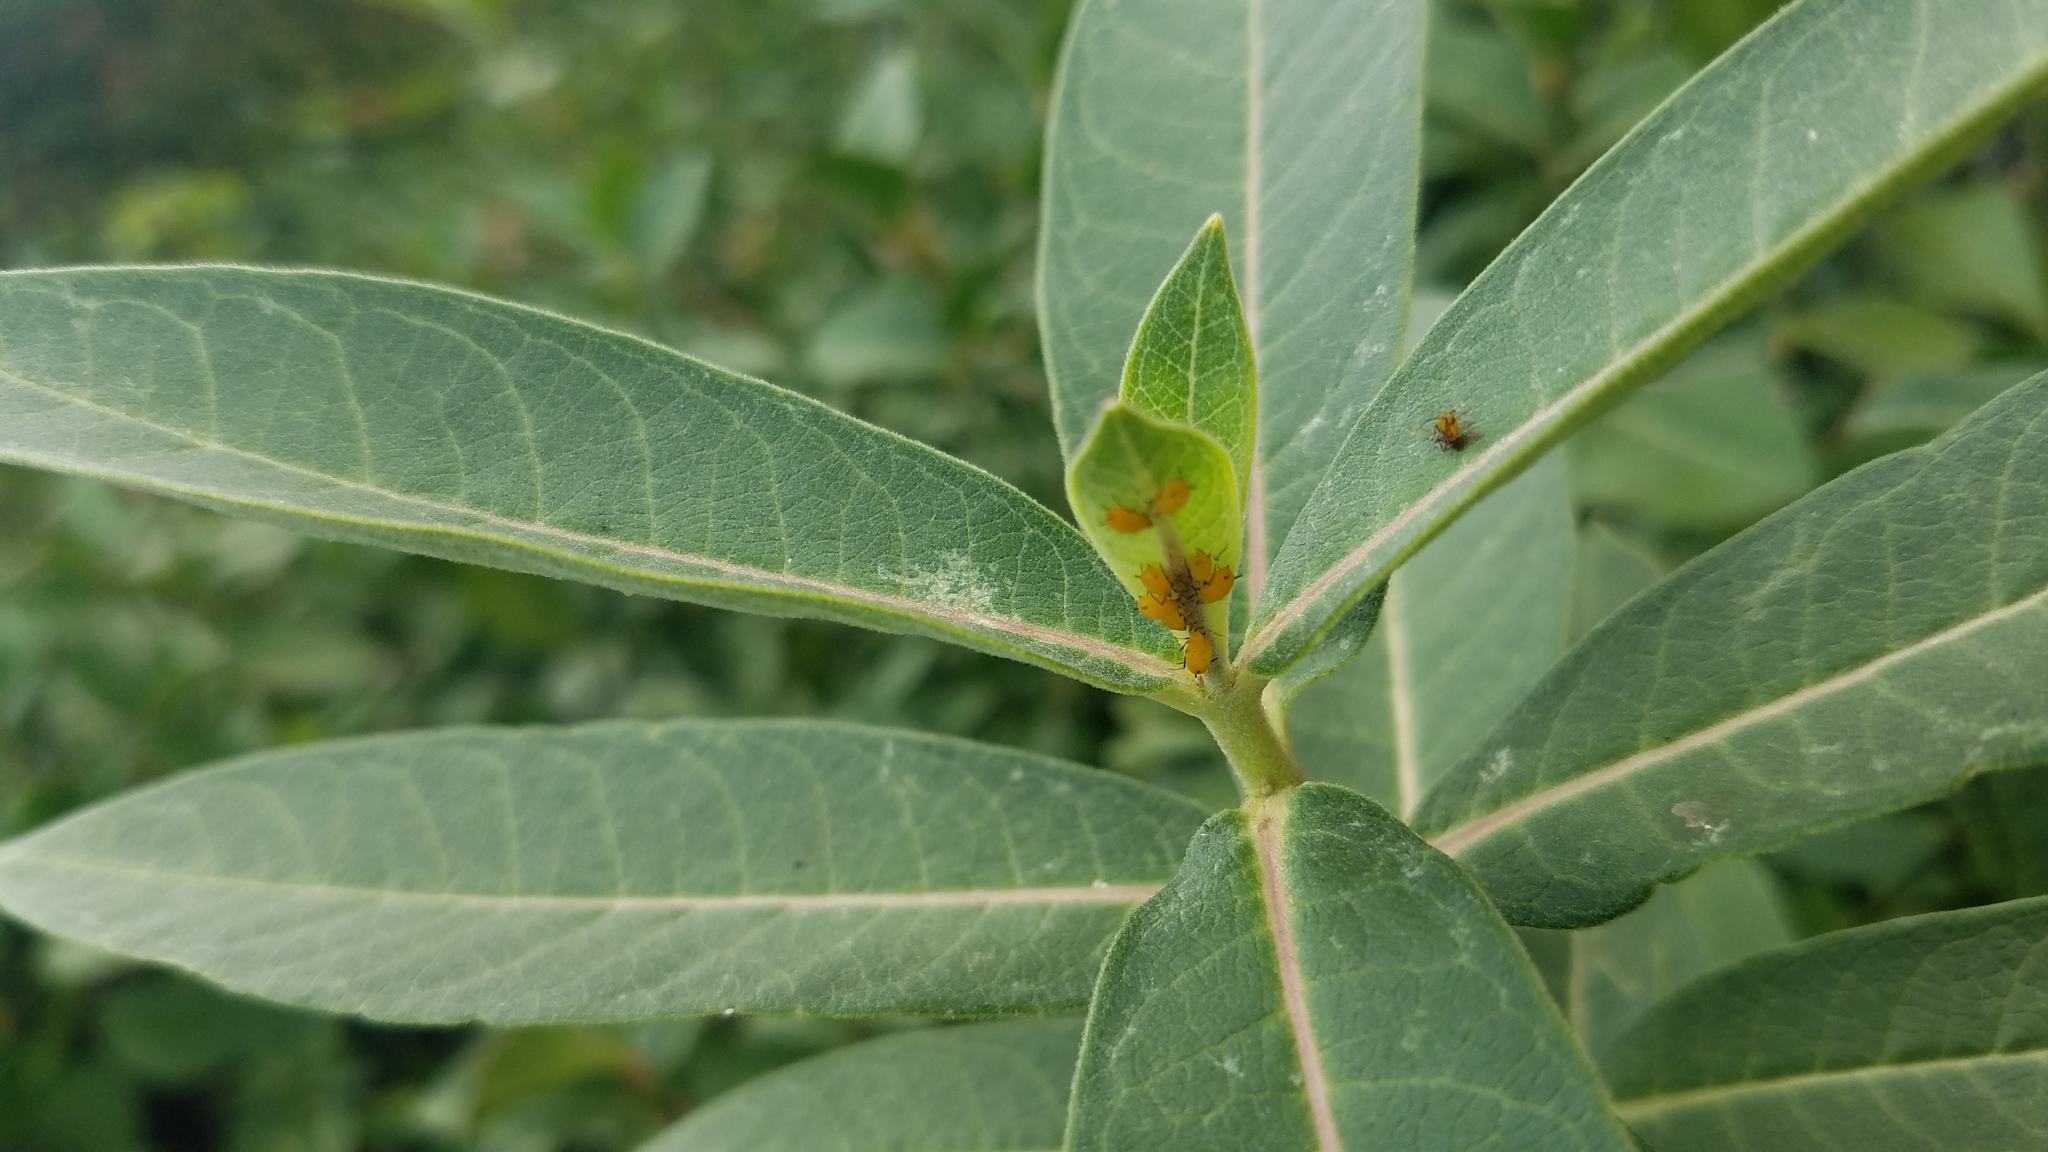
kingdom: Plantae
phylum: Tracheophyta
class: Magnoliopsida
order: Gentianales
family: Apocynaceae
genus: Asclepias
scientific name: Asclepias syriaca
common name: Common milkweed
